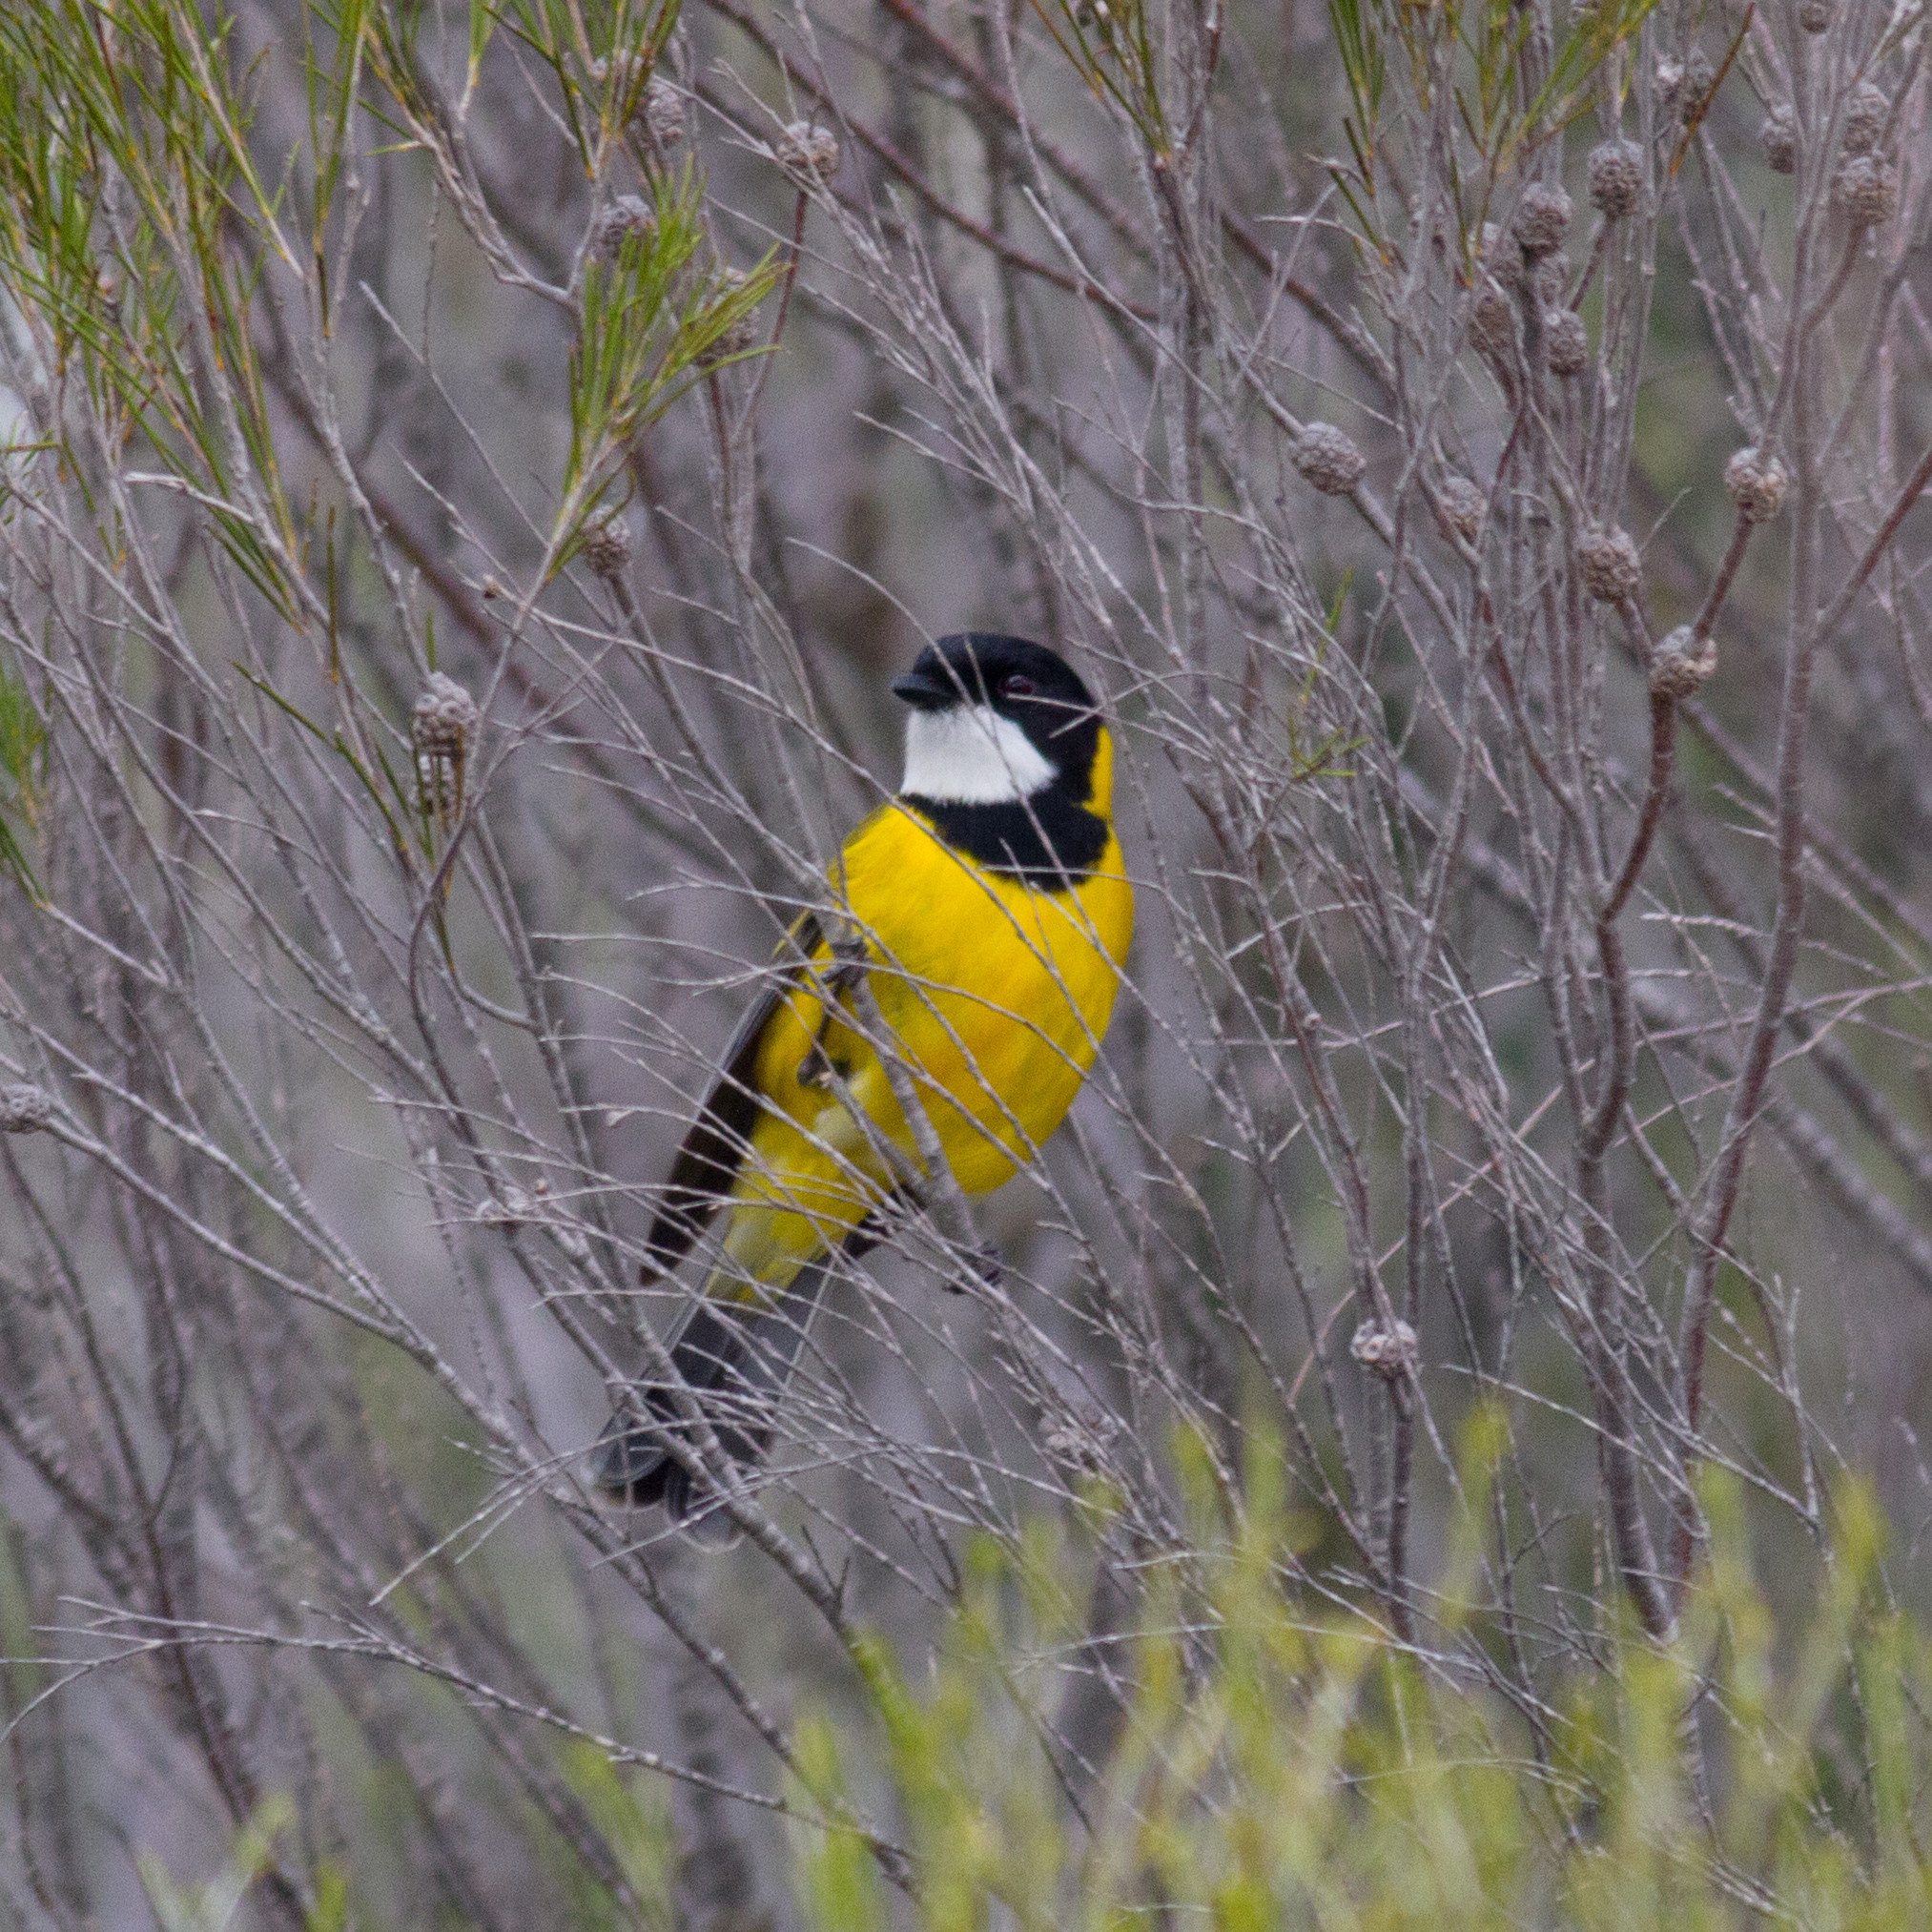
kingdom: Animalia
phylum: Chordata
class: Aves
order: Passeriformes
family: Pachycephalidae
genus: Pachycephala
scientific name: Pachycephala fuliginosa
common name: Western whistler
